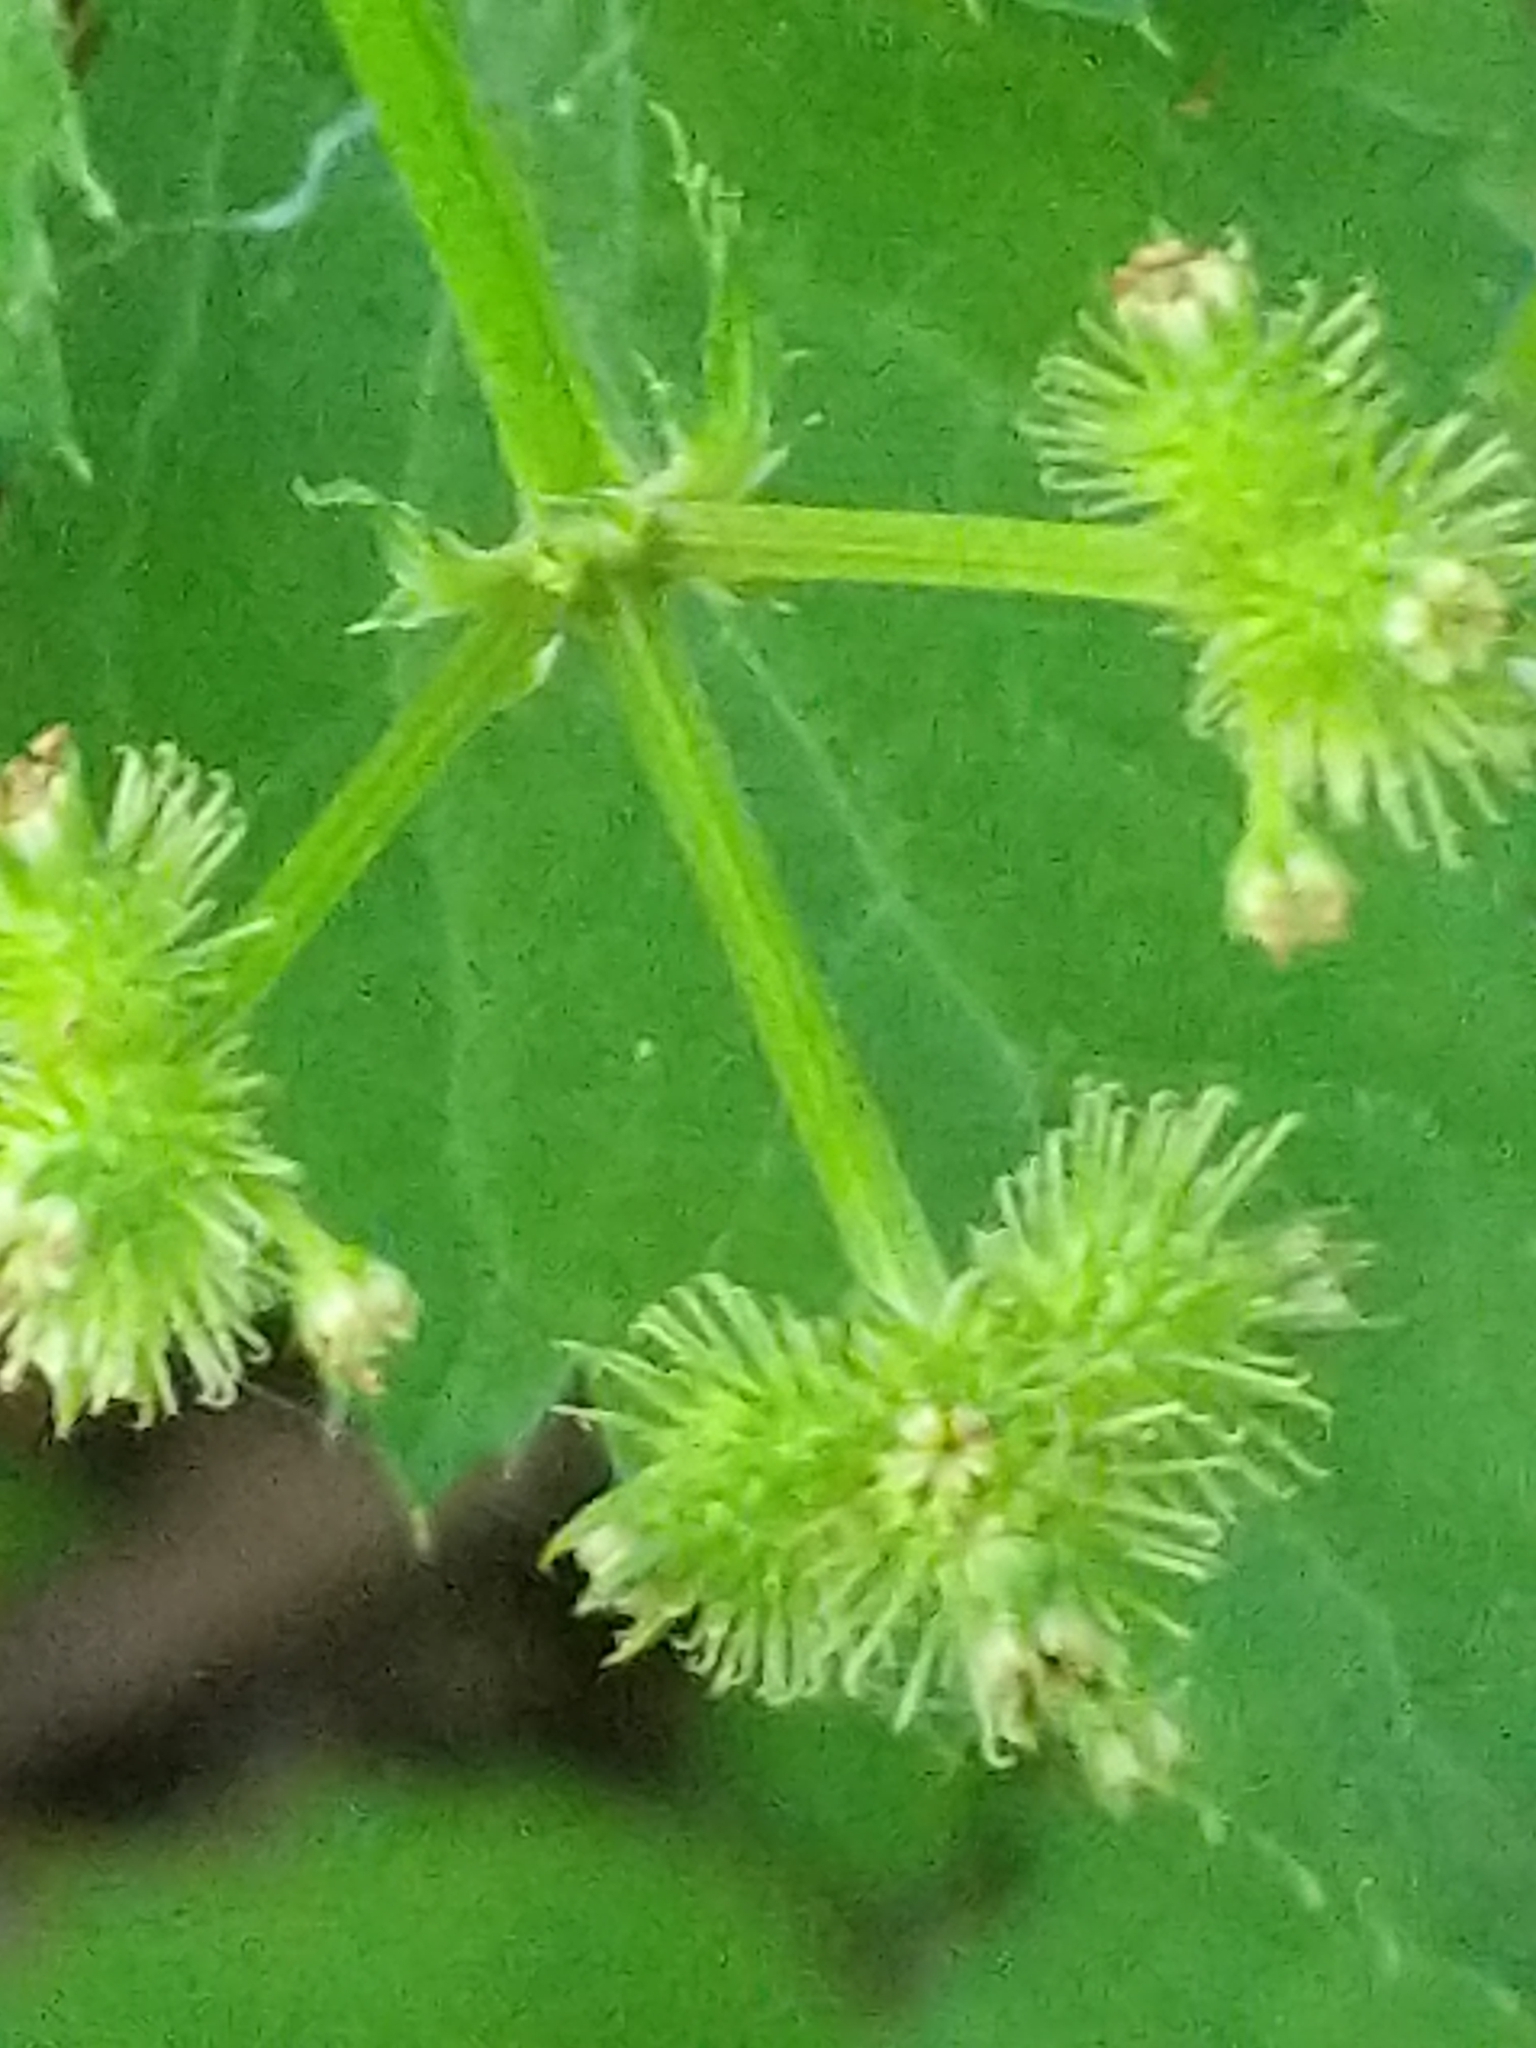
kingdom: Plantae
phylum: Tracheophyta
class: Magnoliopsida
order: Apiales
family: Apiaceae
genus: Sanicula
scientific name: Sanicula trifoliata
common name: Beaked sanicle
